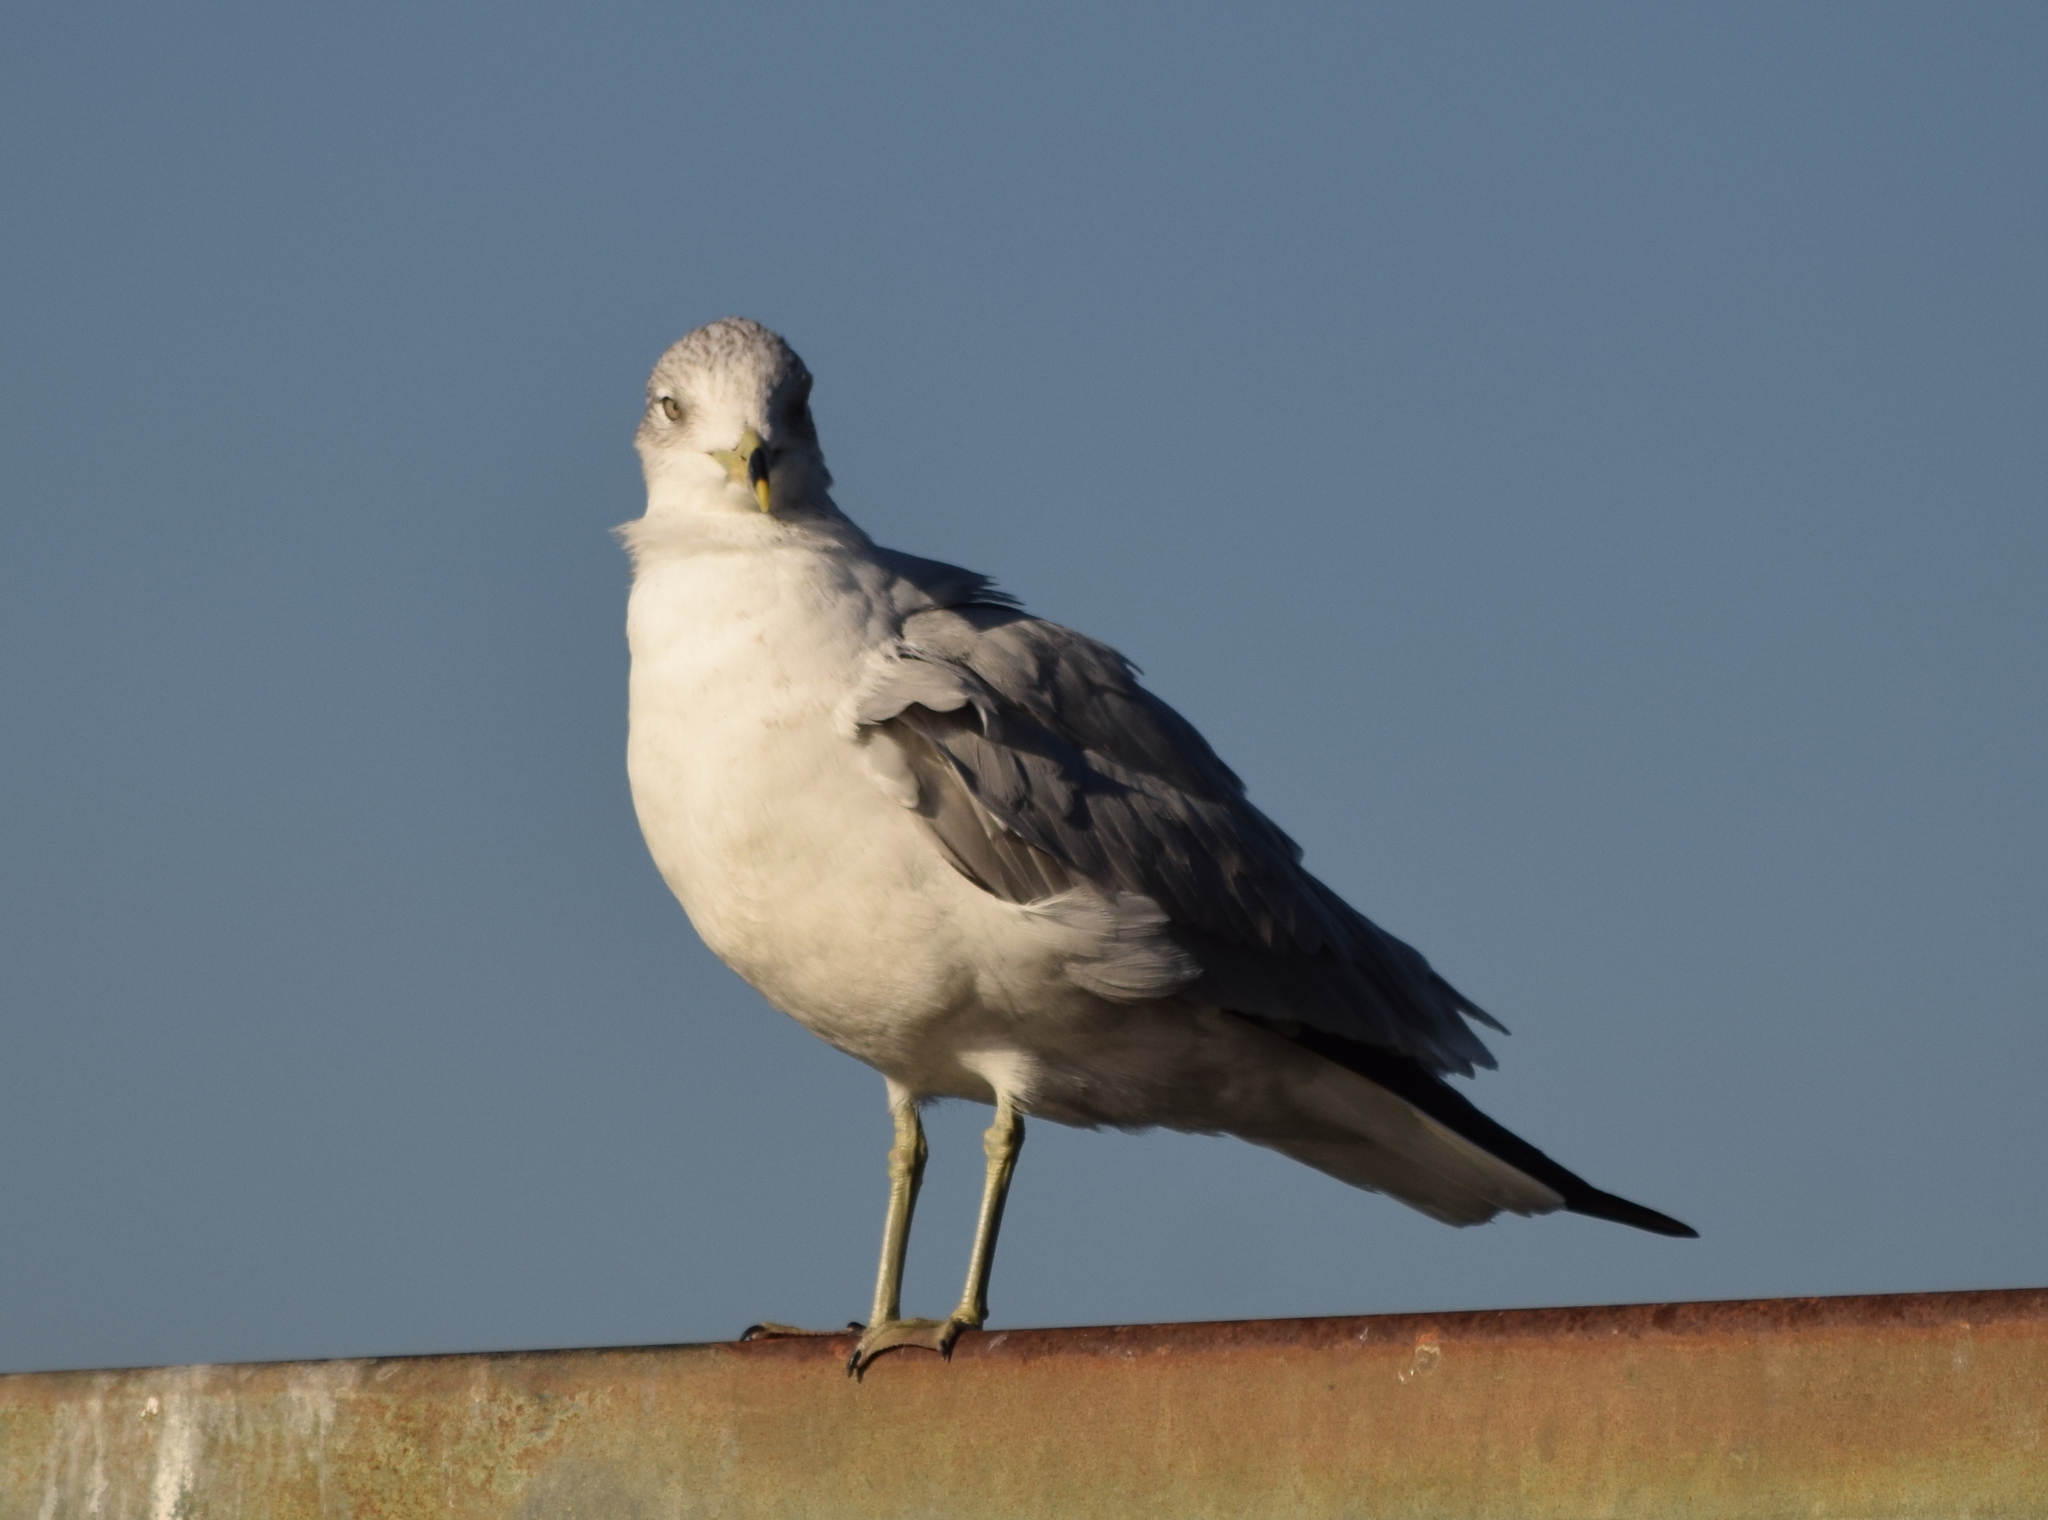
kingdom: Animalia
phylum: Chordata
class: Aves
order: Charadriiformes
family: Laridae
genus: Larus
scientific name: Larus delawarensis
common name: Ring-billed gull
